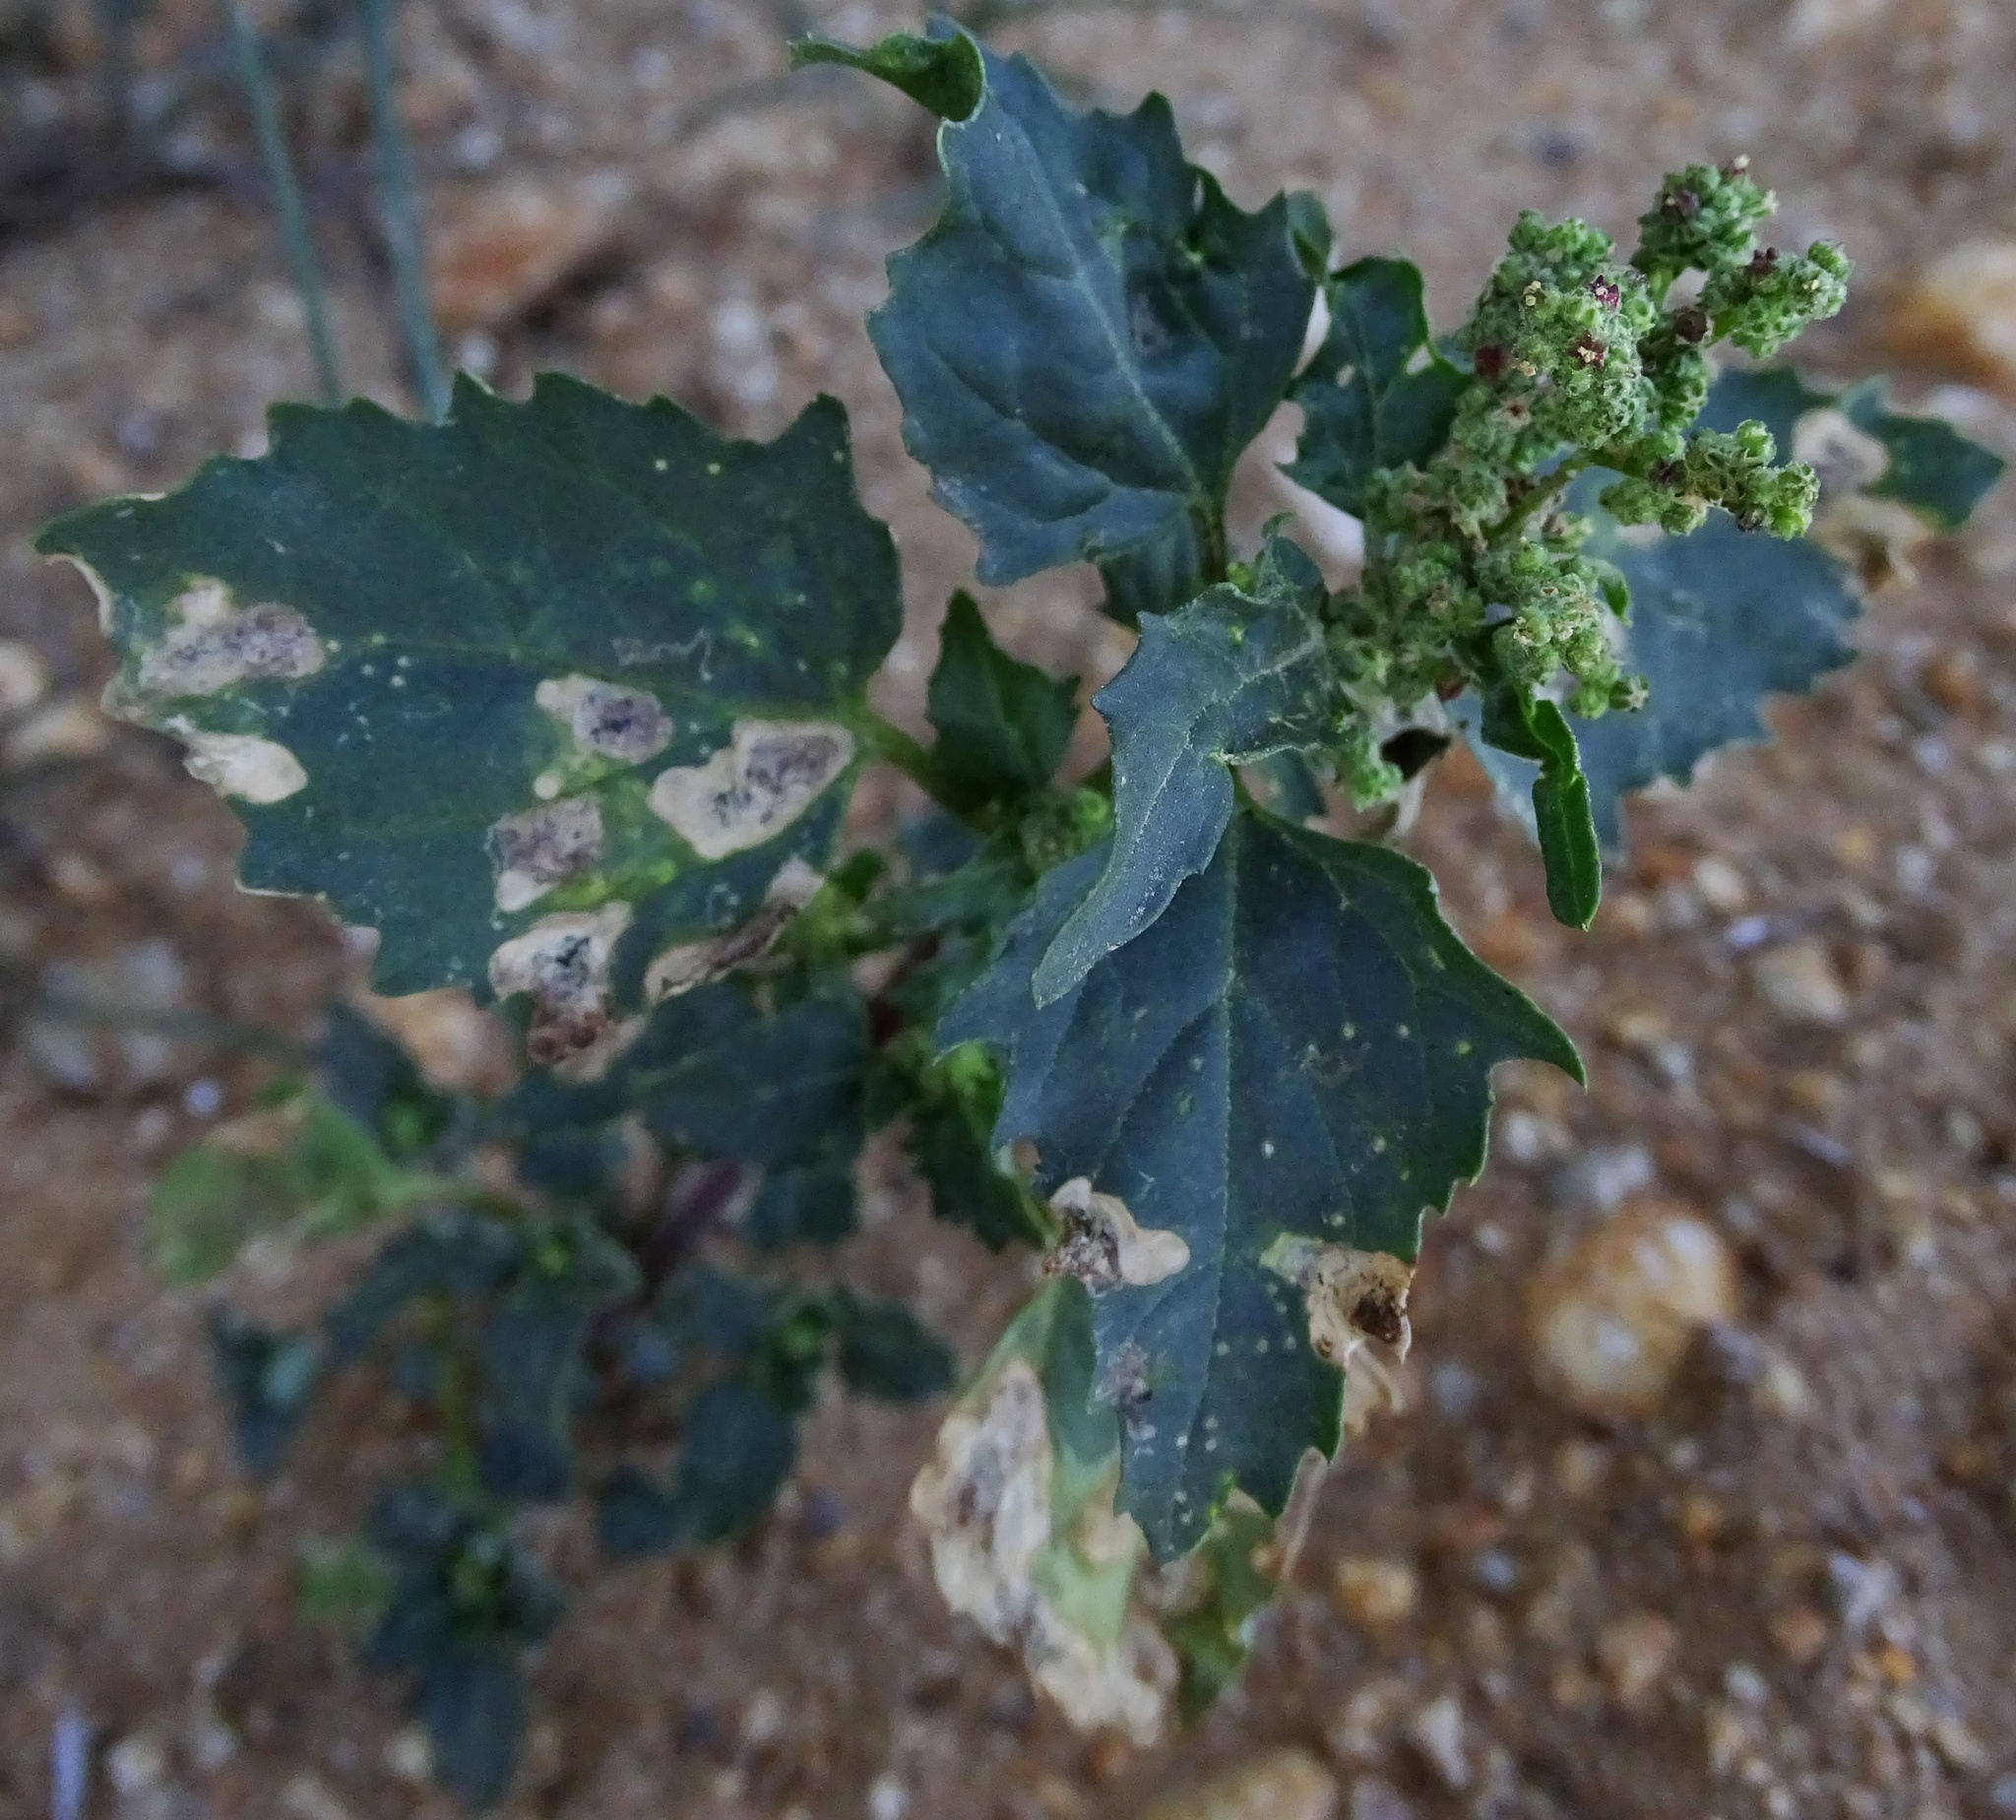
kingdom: Plantae
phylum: Tracheophyta
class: Magnoliopsida
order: Caryophyllales
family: Amaranthaceae
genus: Chenopodiastrum
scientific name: Chenopodiastrum murale
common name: Sowbane
